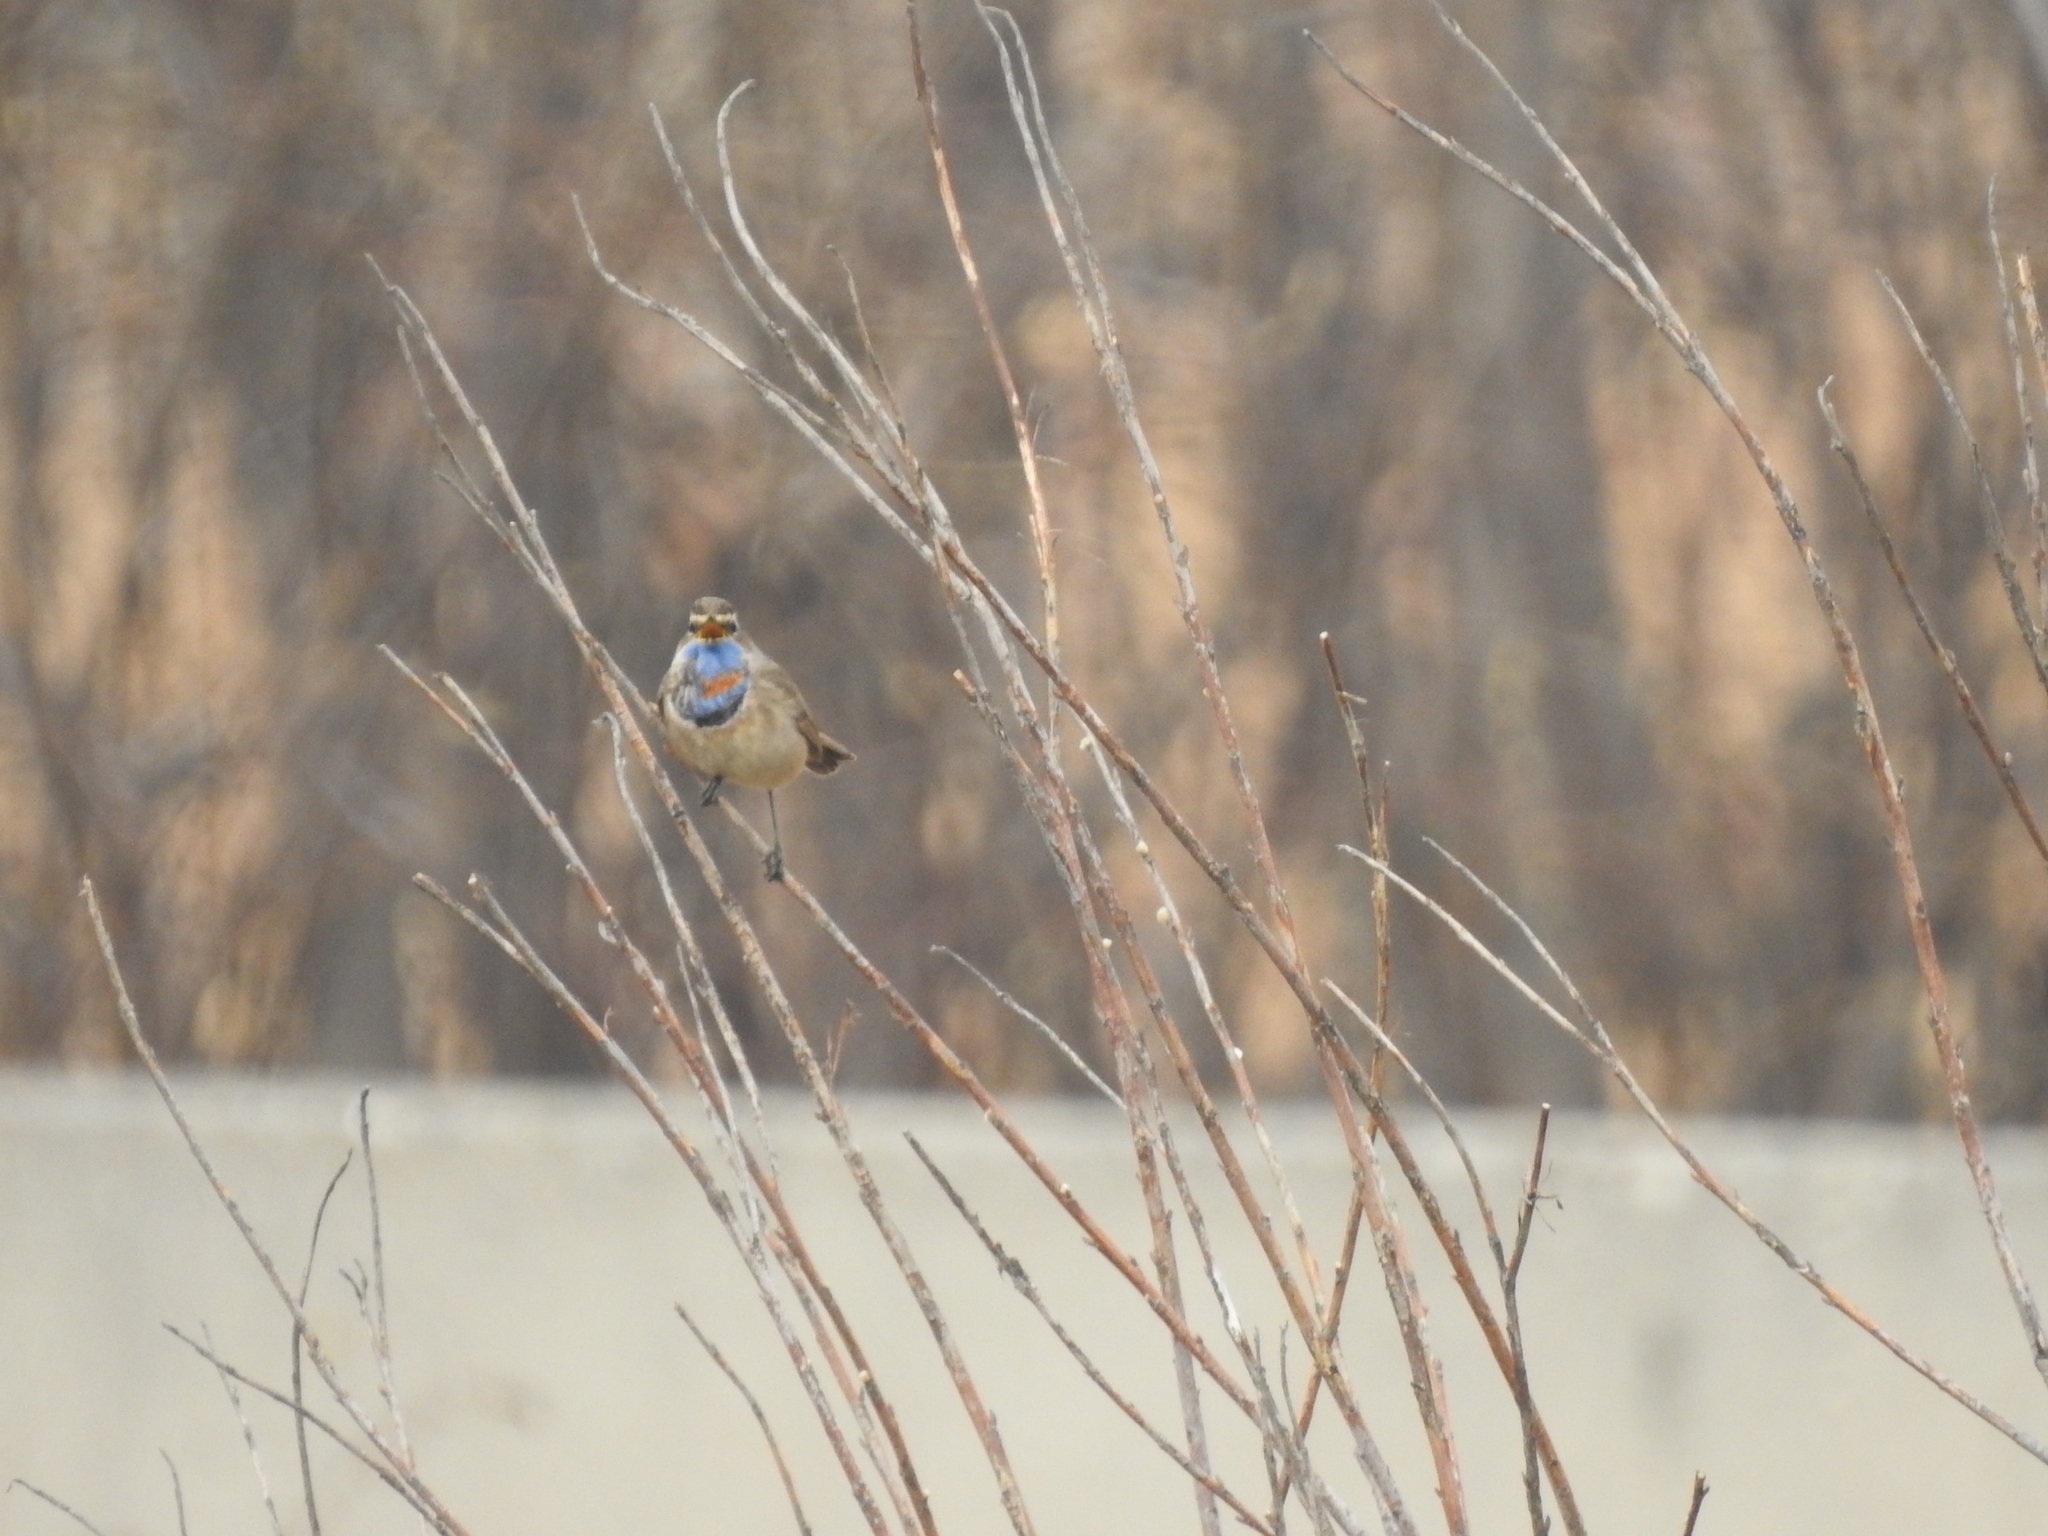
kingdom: Animalia
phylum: Chordata
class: Aves
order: Passeriformes
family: Muscicapidae
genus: Luscinia
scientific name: Luscinia svecica
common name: Bluethroat
